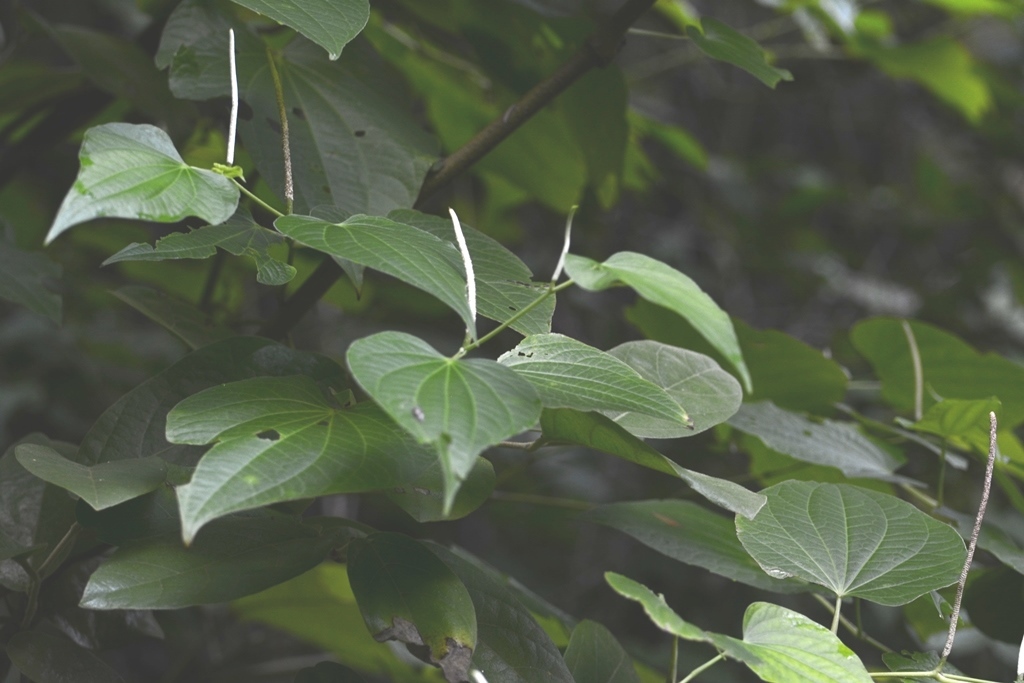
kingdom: Plantae
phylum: Tracheophyta
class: Magnoliopsida
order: Piperales
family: Piperaceae
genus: Piper
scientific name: Piper marginatum
